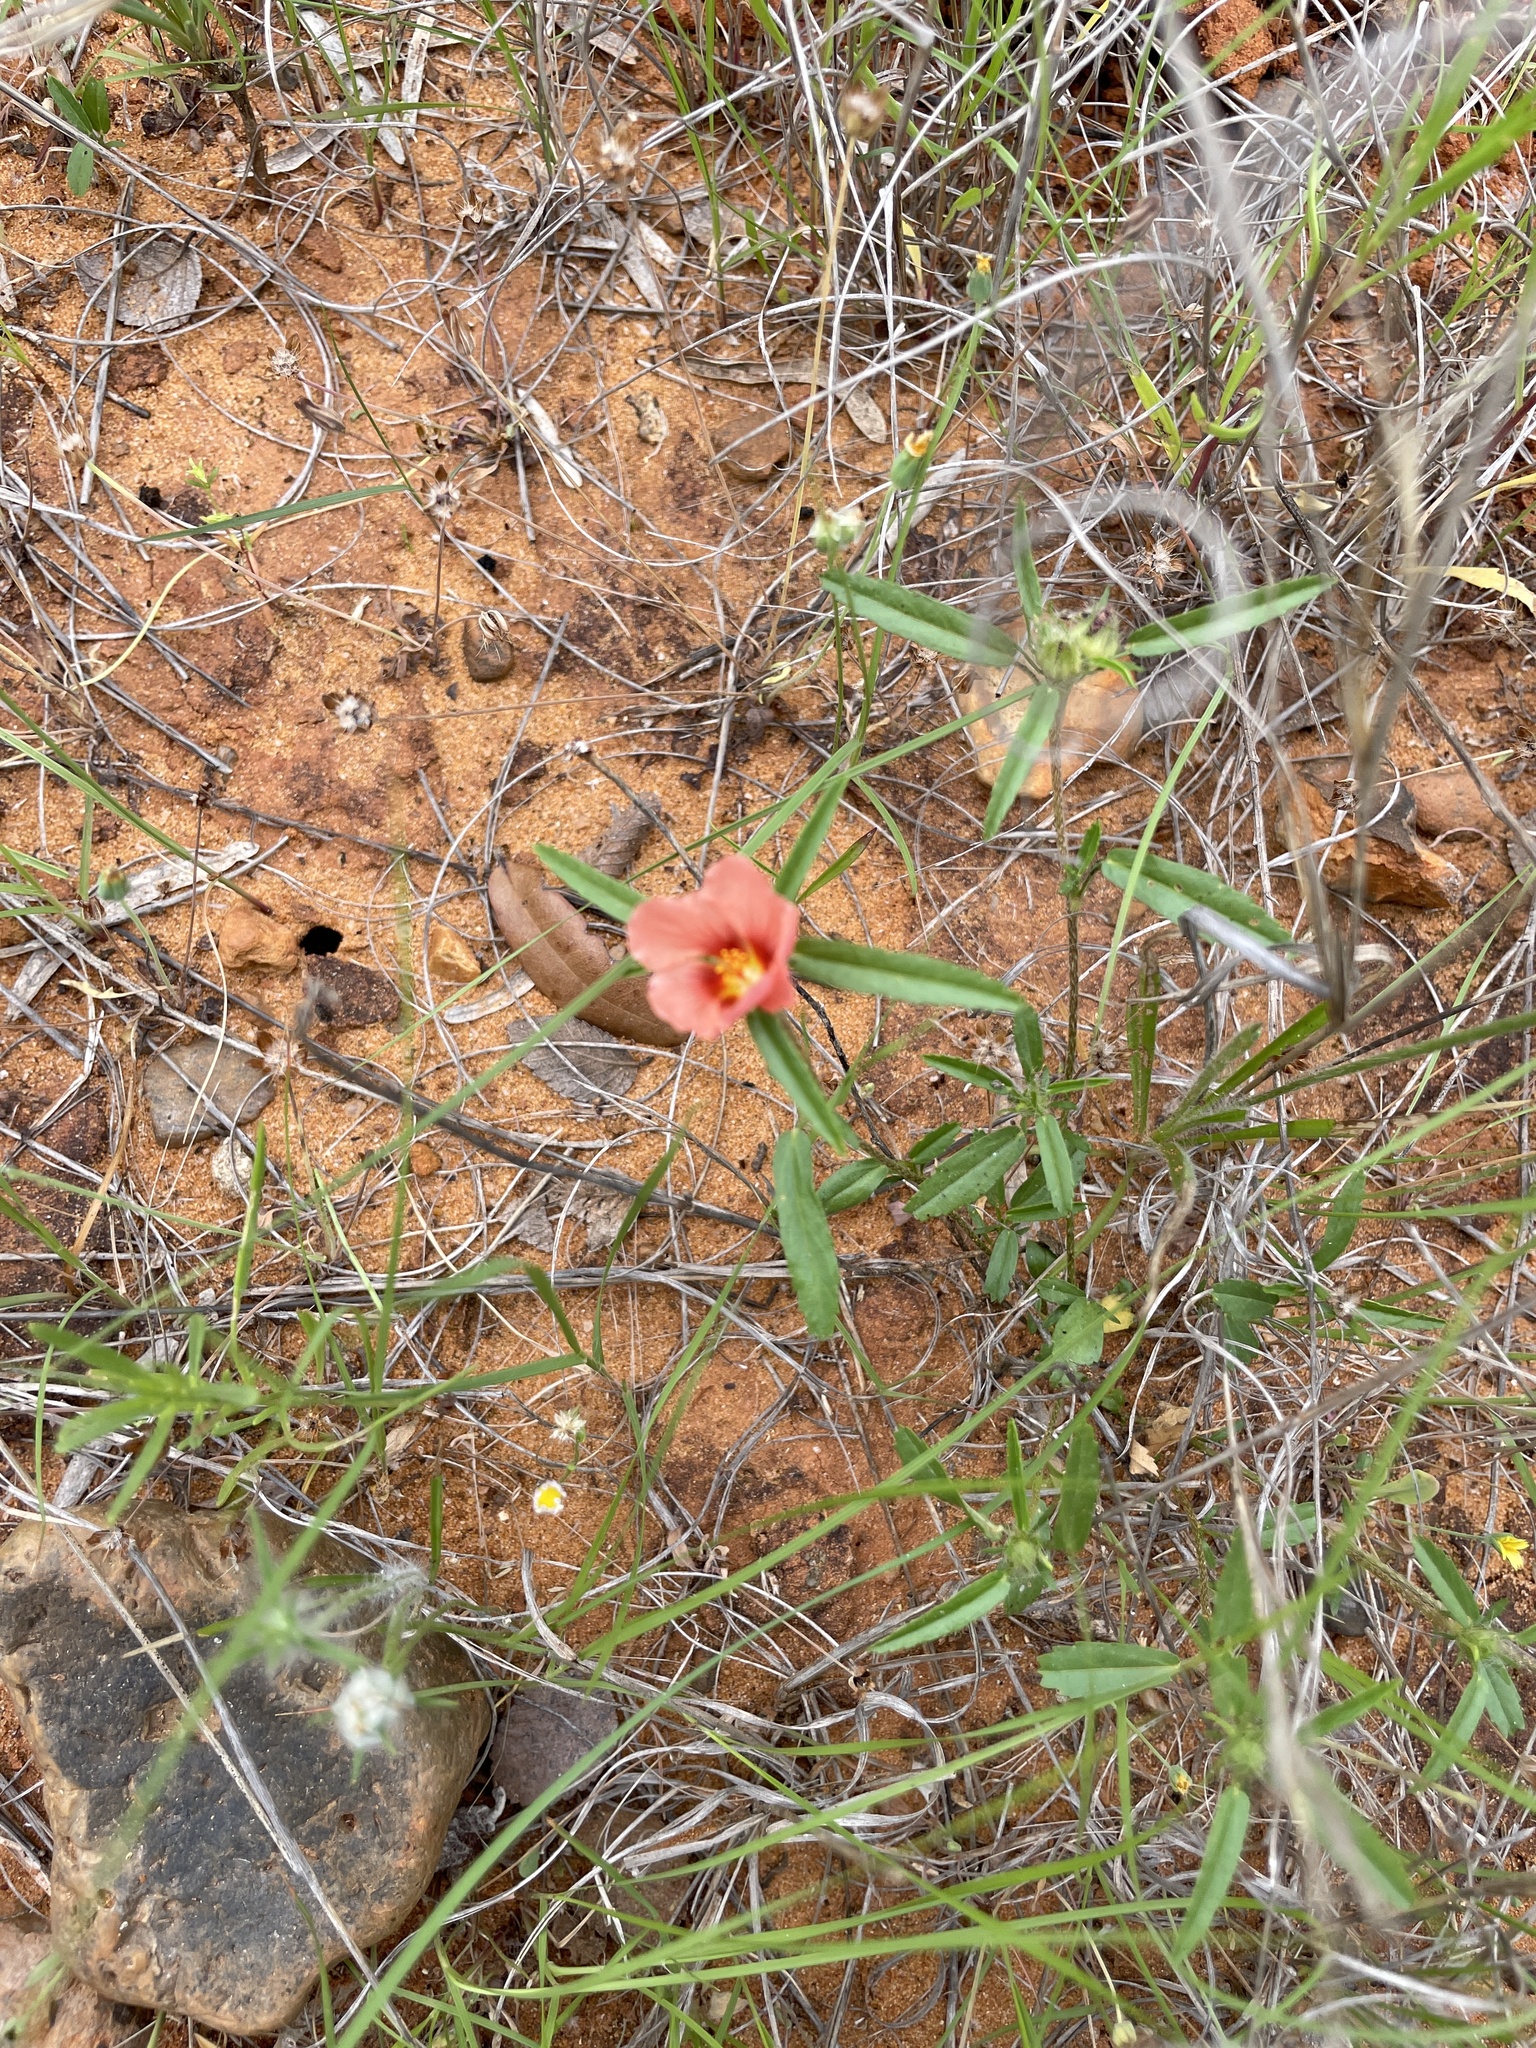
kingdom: Plantae
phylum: Tracheophyta
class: Magnoliopsida
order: Malvales
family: Malvaceae
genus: Sida
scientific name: Sida ciliaris
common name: Bracted fanpetals
